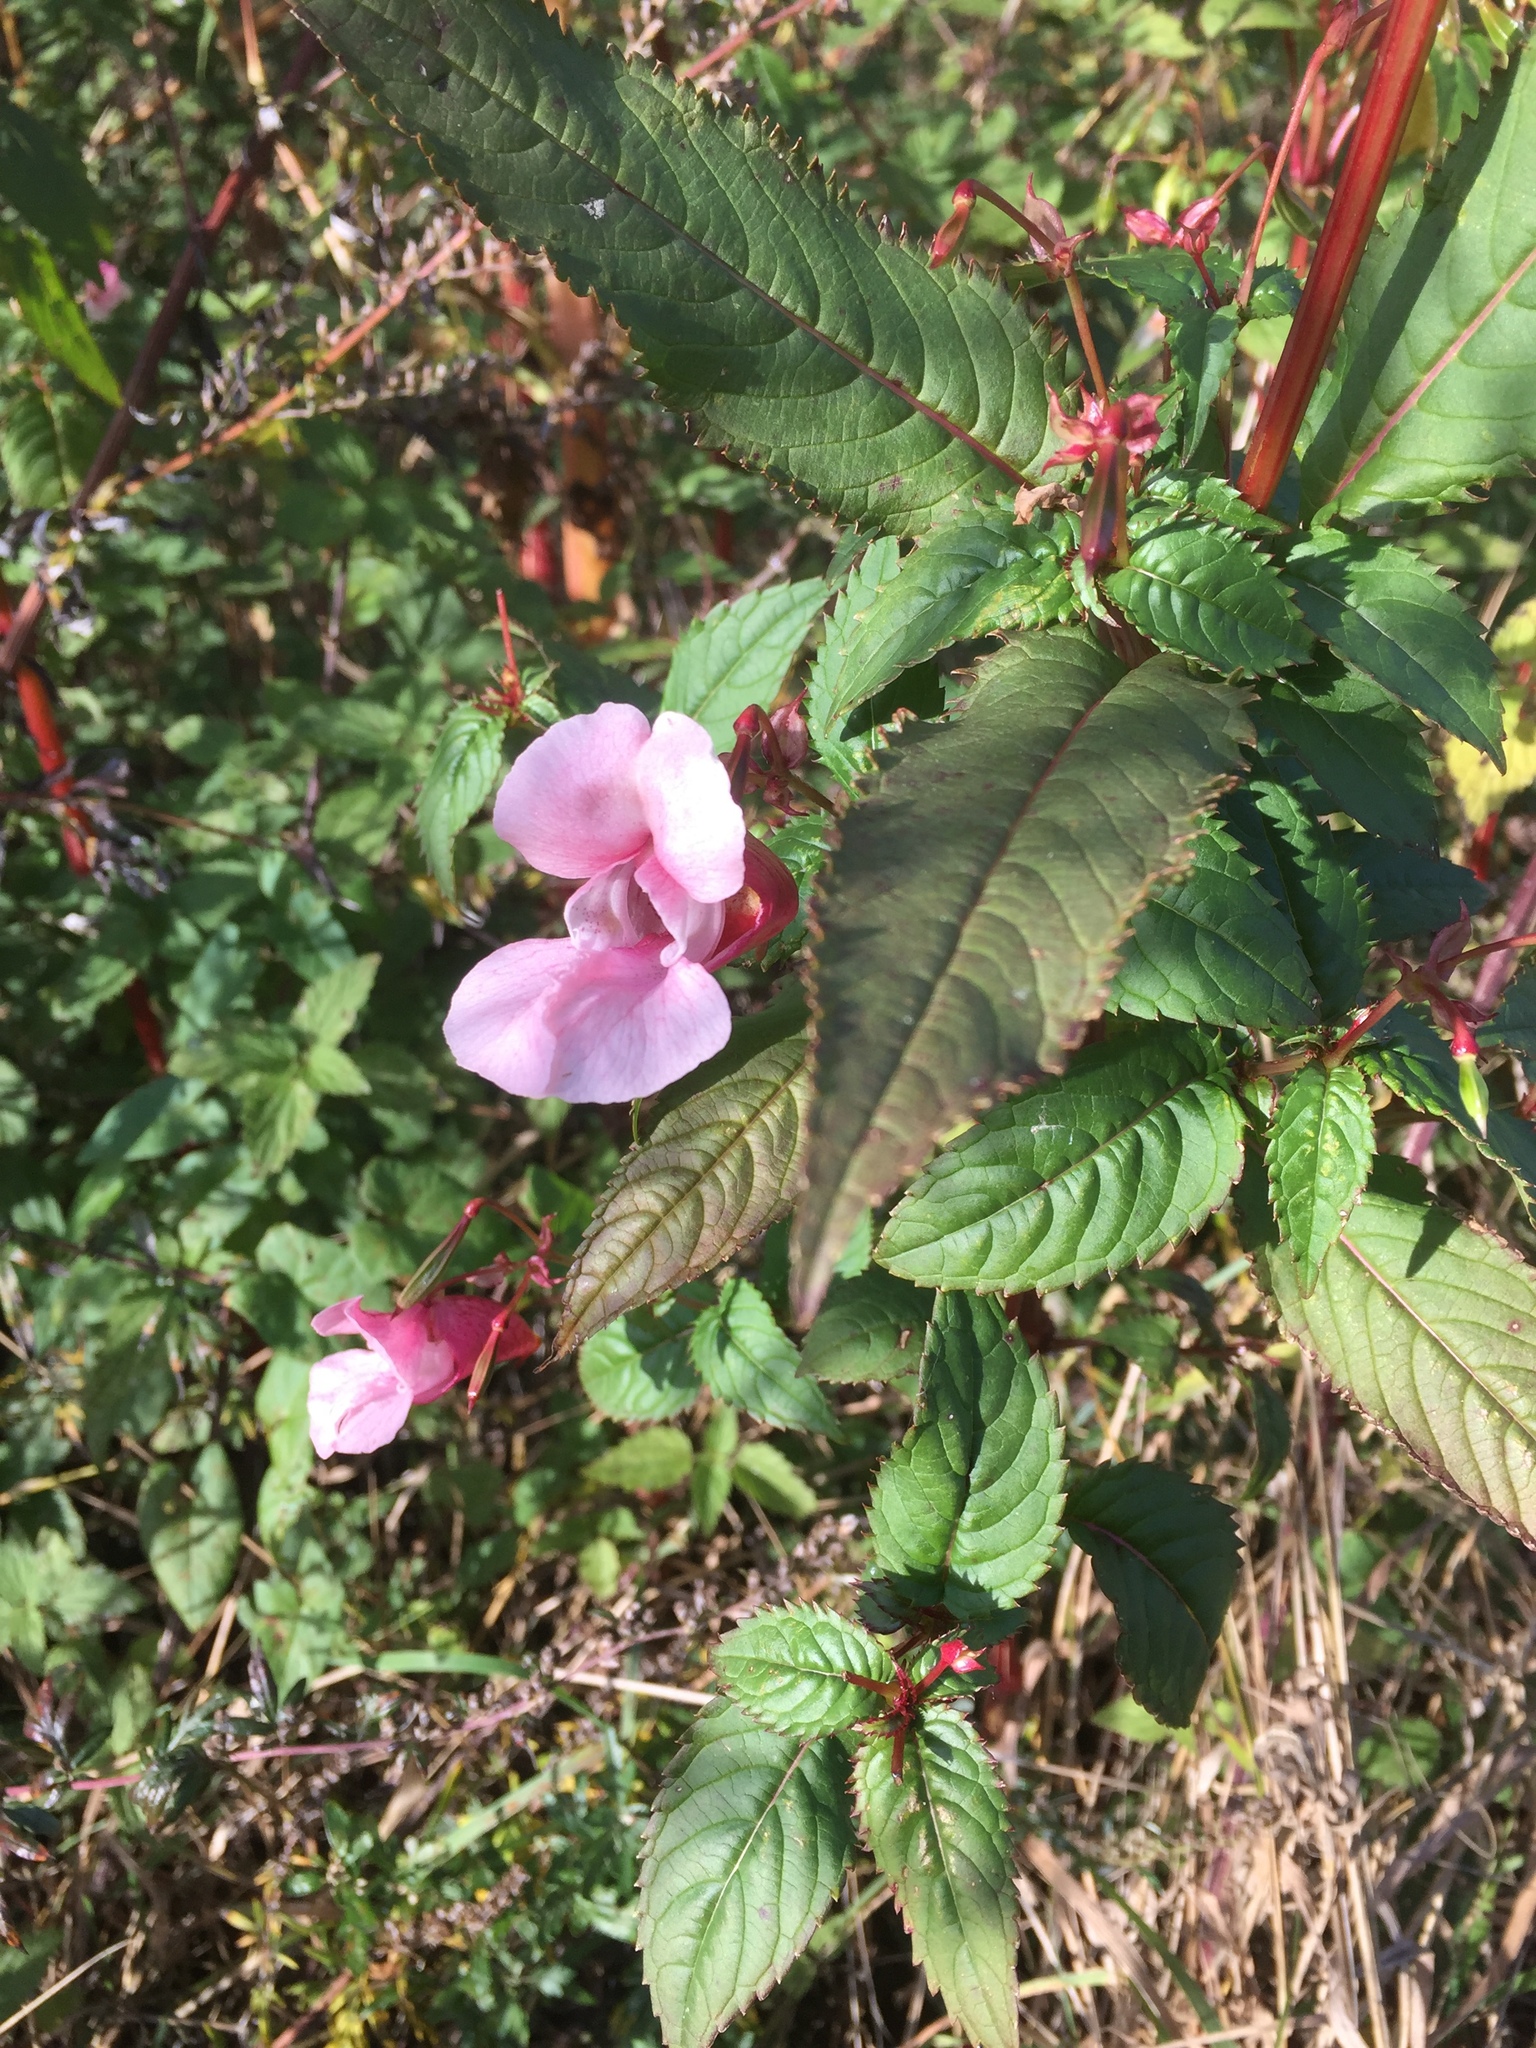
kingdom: Plantae
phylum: Tracheophyta
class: Magnoliopsida
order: Ericales
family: Balsaminaceae
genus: Impatiens
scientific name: Impatiens glandulifera
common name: Himalayan balsam
